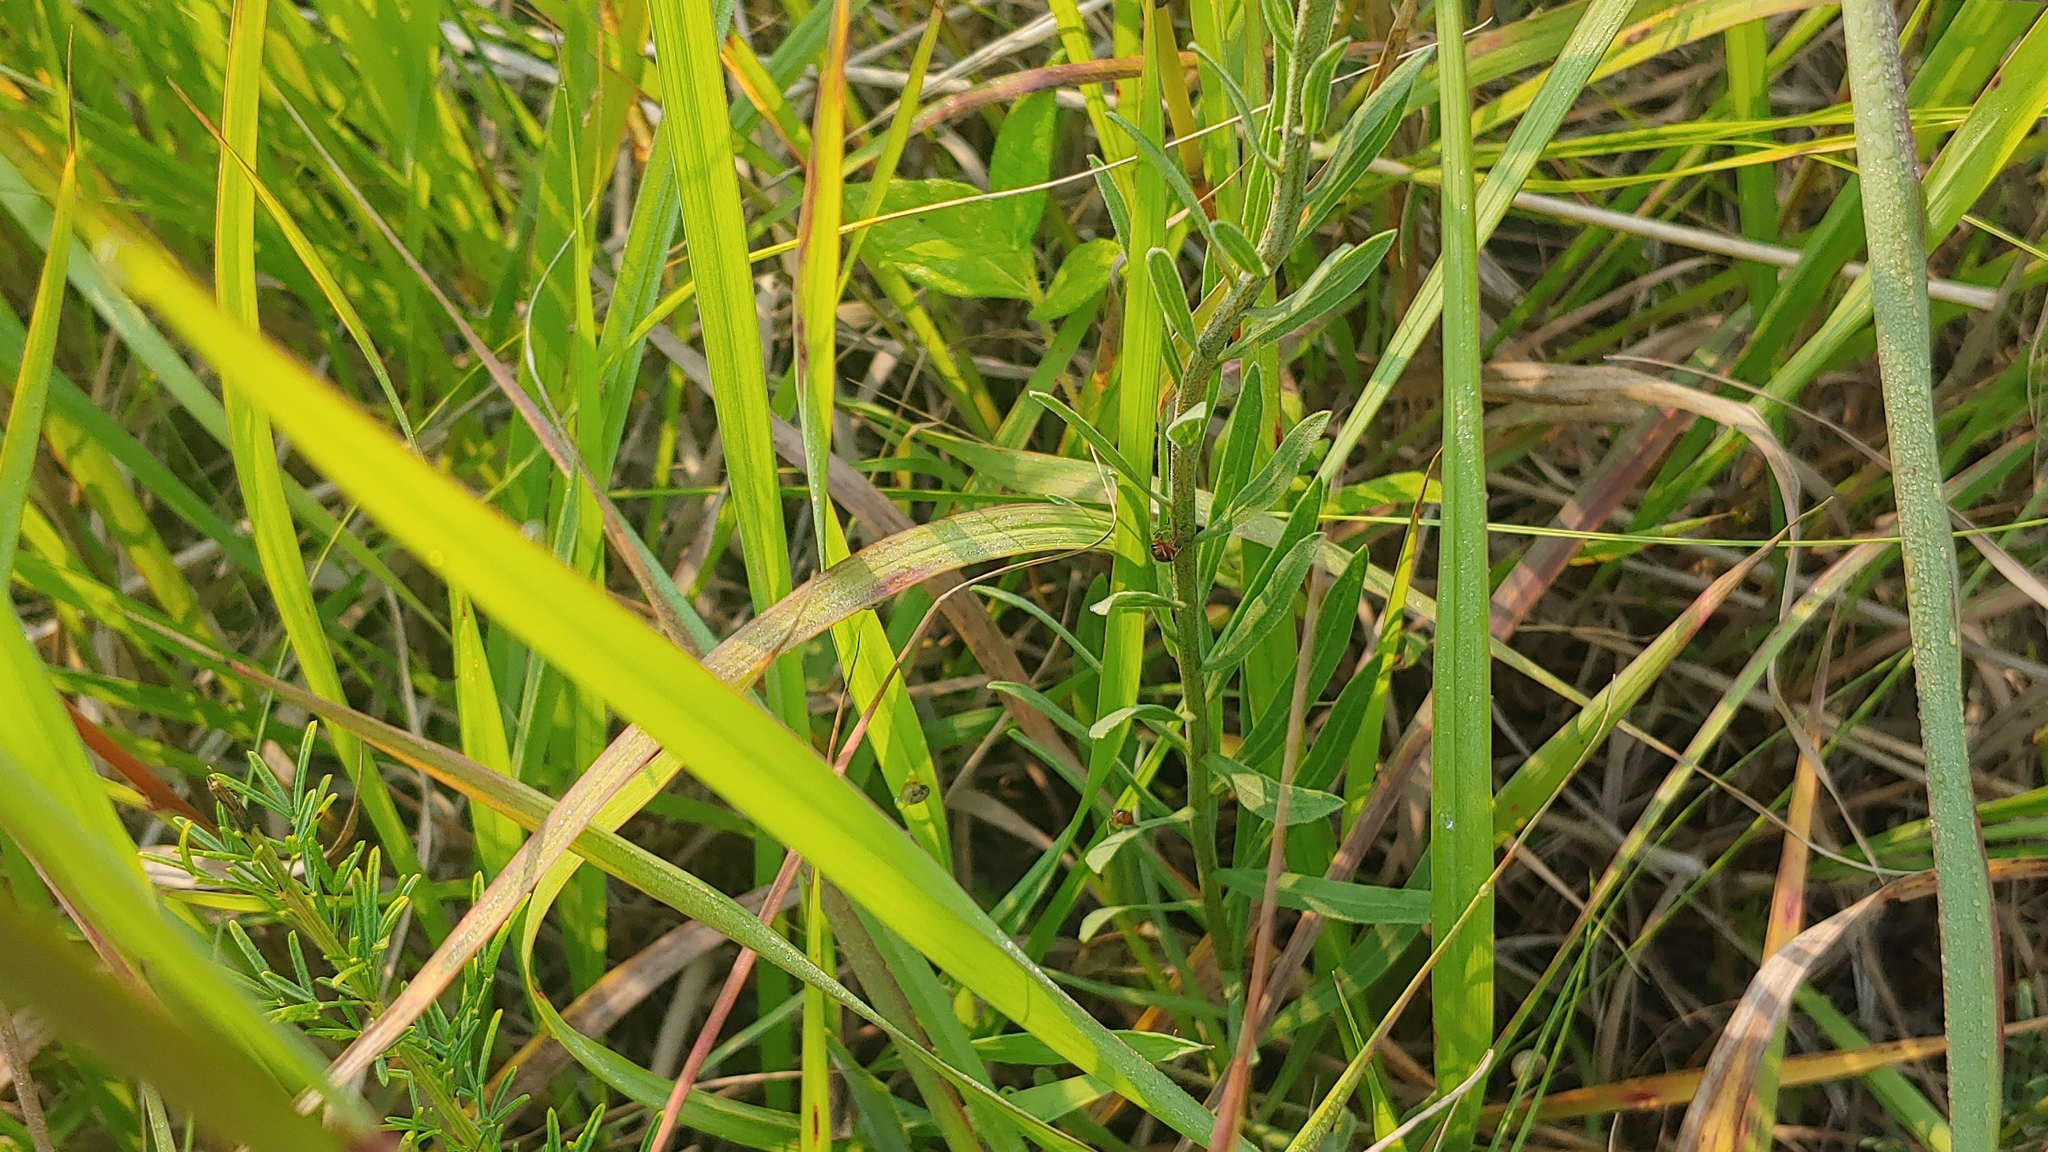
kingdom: Plantae
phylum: Tracheophyta
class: Magnoliopsida
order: Asterales
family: Asteraceae
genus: Liatris
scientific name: Liatris aspera
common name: Lacerate blazing-star
